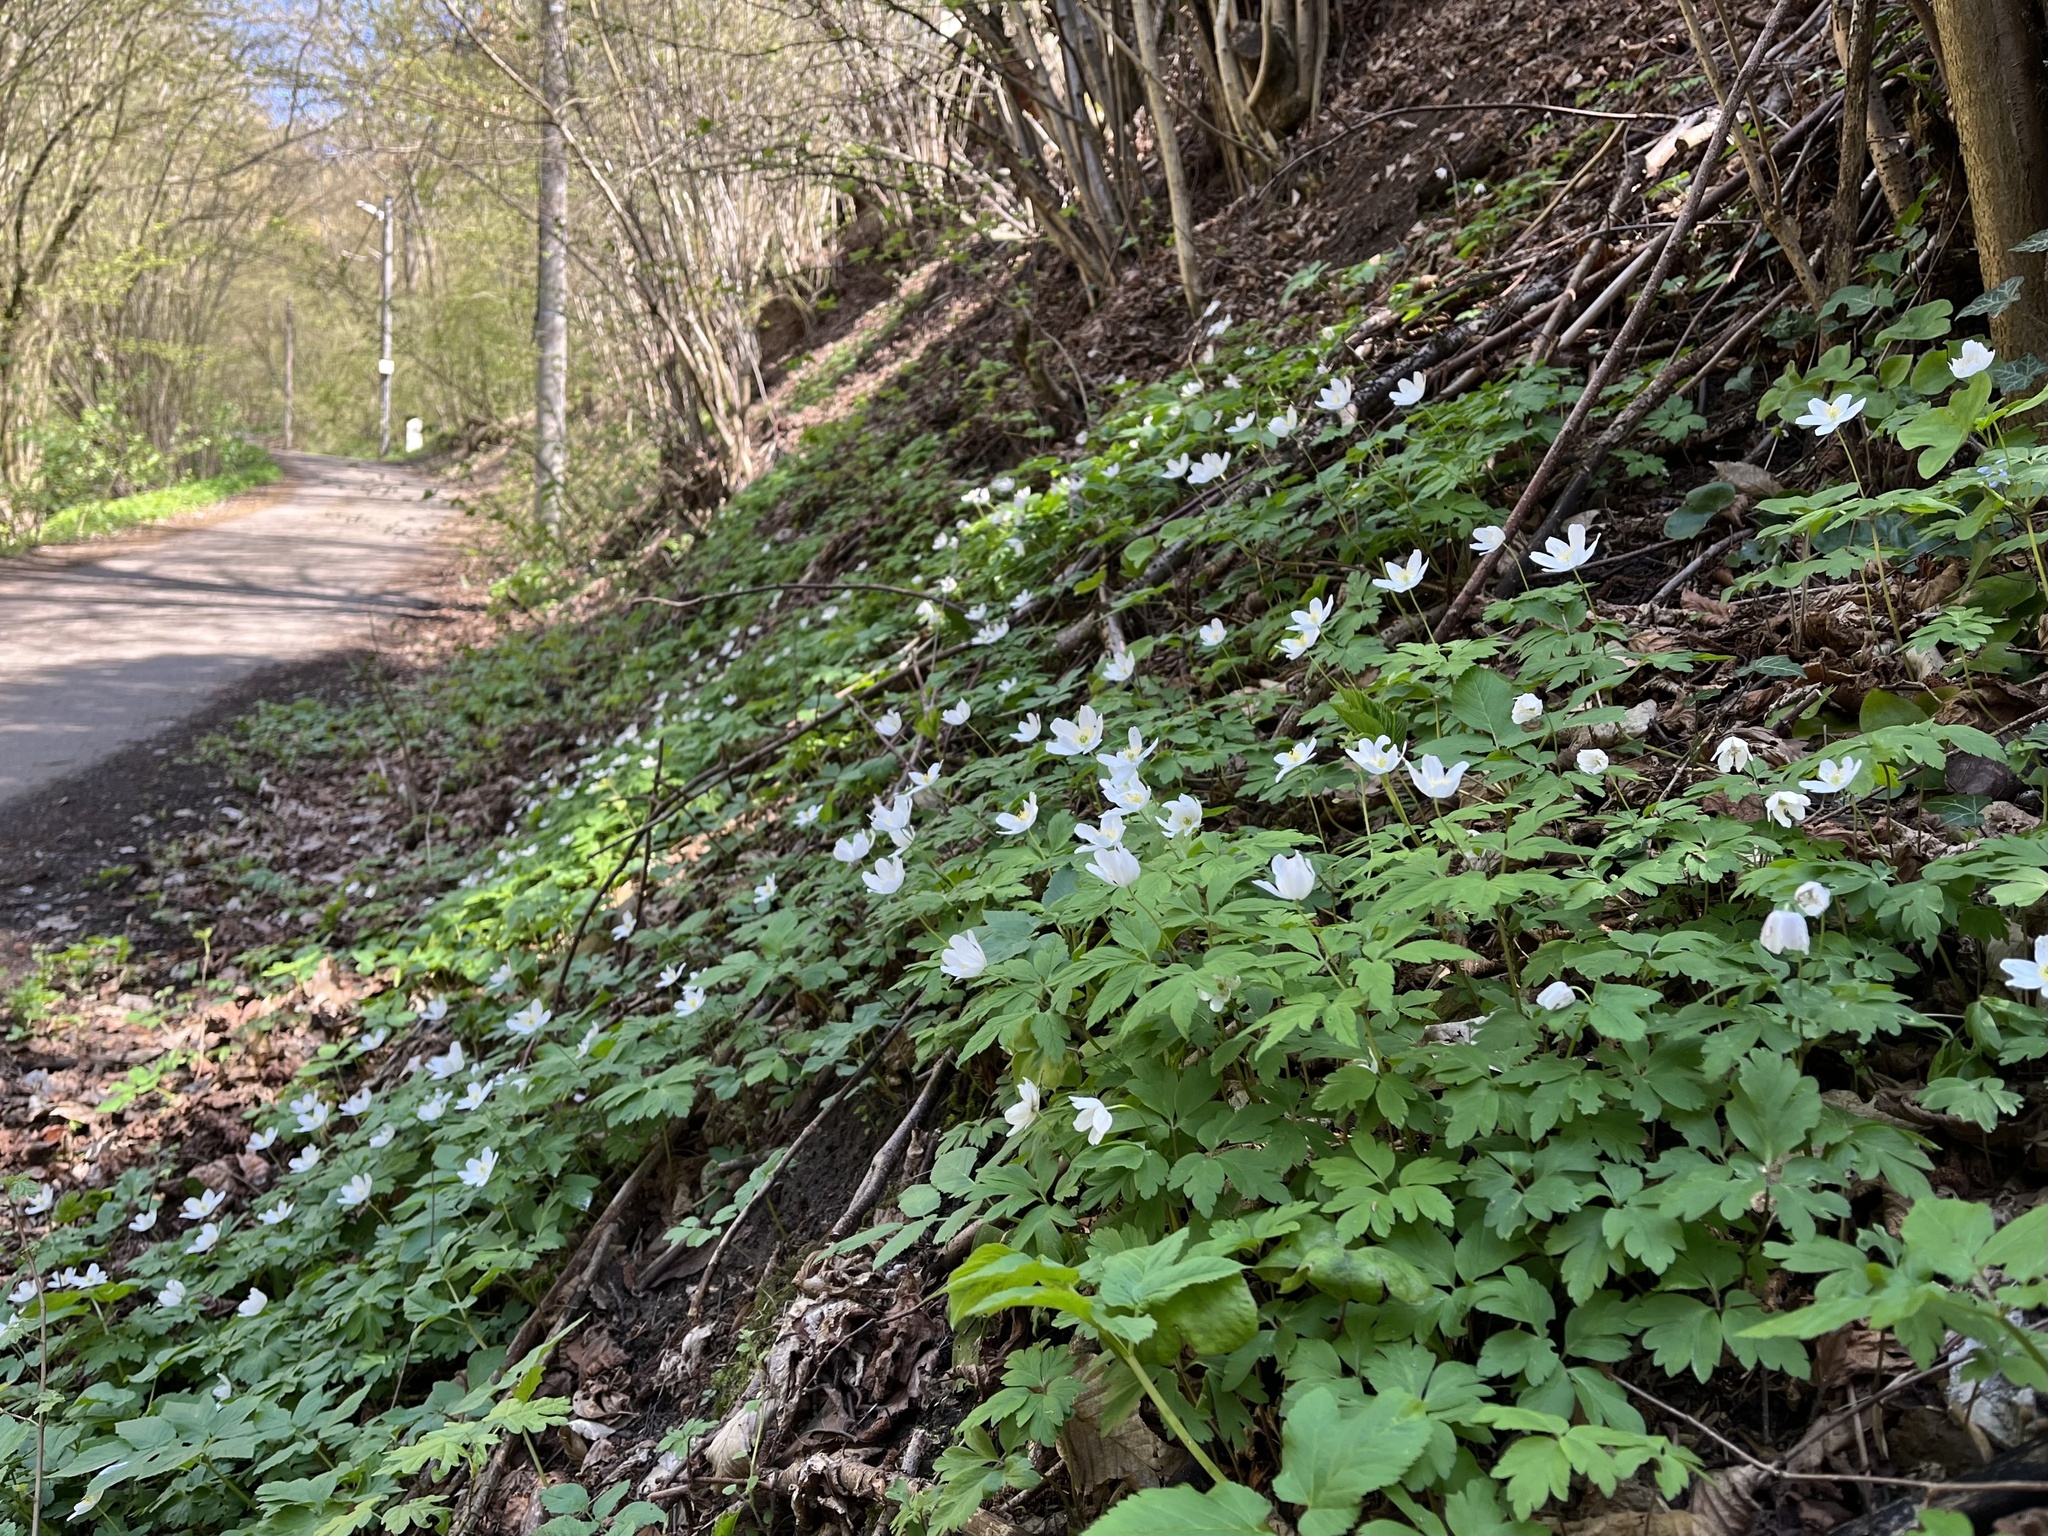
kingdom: Plantae
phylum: Tracheophyta
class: Magnoliopsida
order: Ranunculales
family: Ranunculaceae
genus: Anemone
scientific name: Anemone nemorosa
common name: Wood anemone
